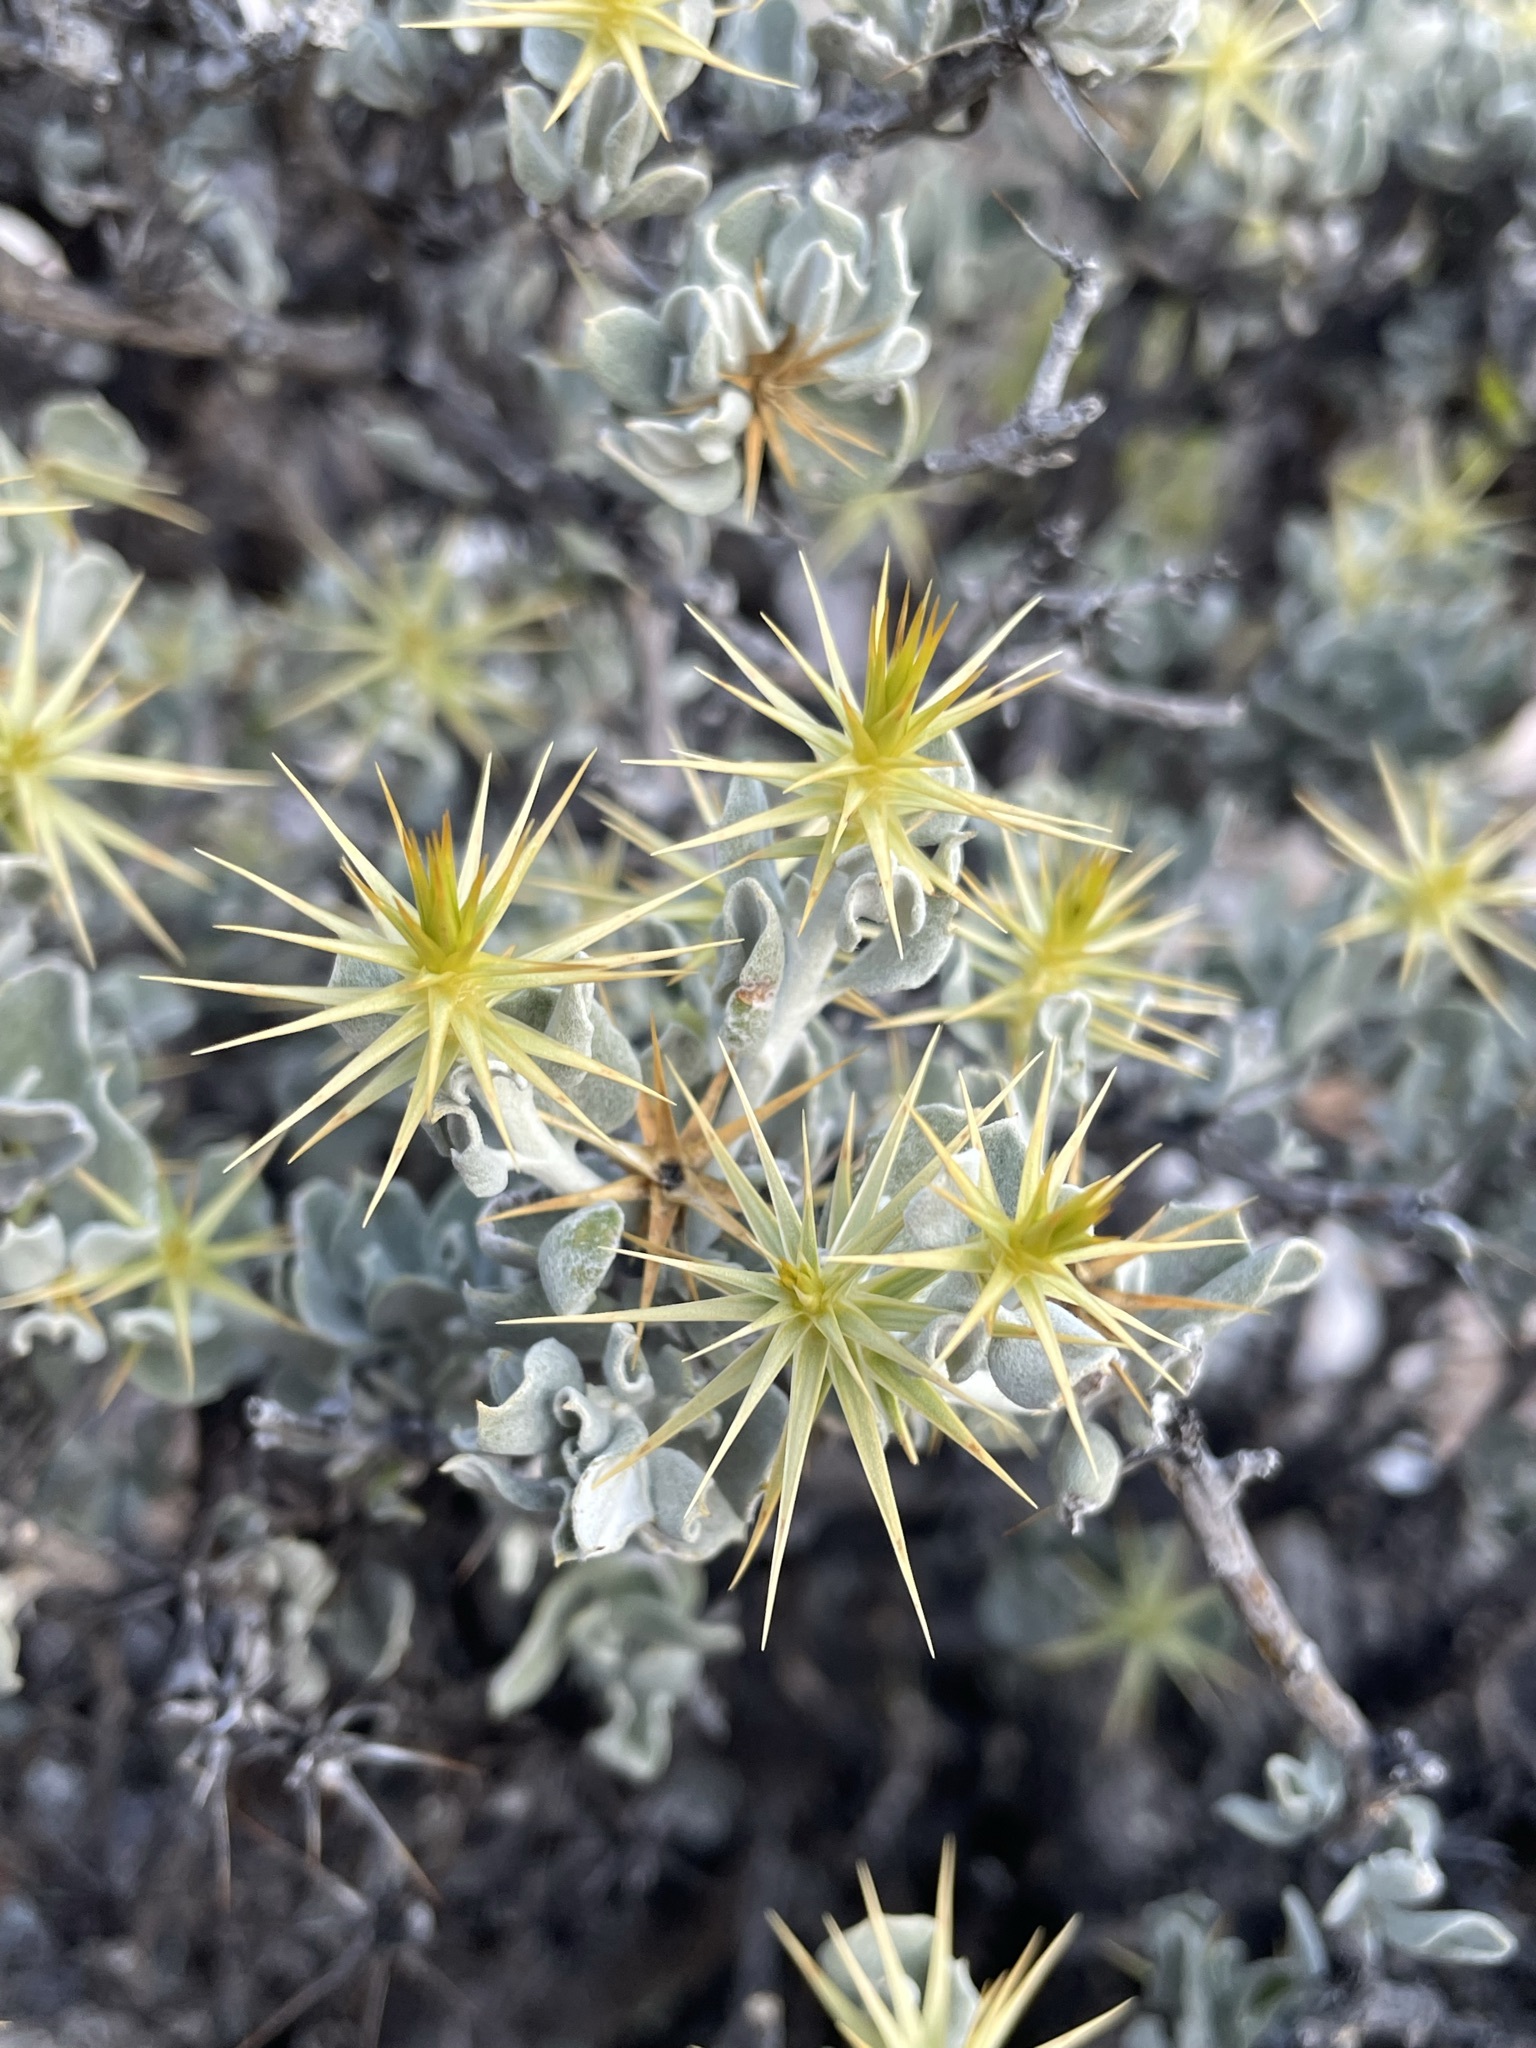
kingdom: Plantae
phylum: Tracheophyta
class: Magnoliopsida
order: Asterales
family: Asteraceae
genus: Macledium
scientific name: Macledium spinosum
